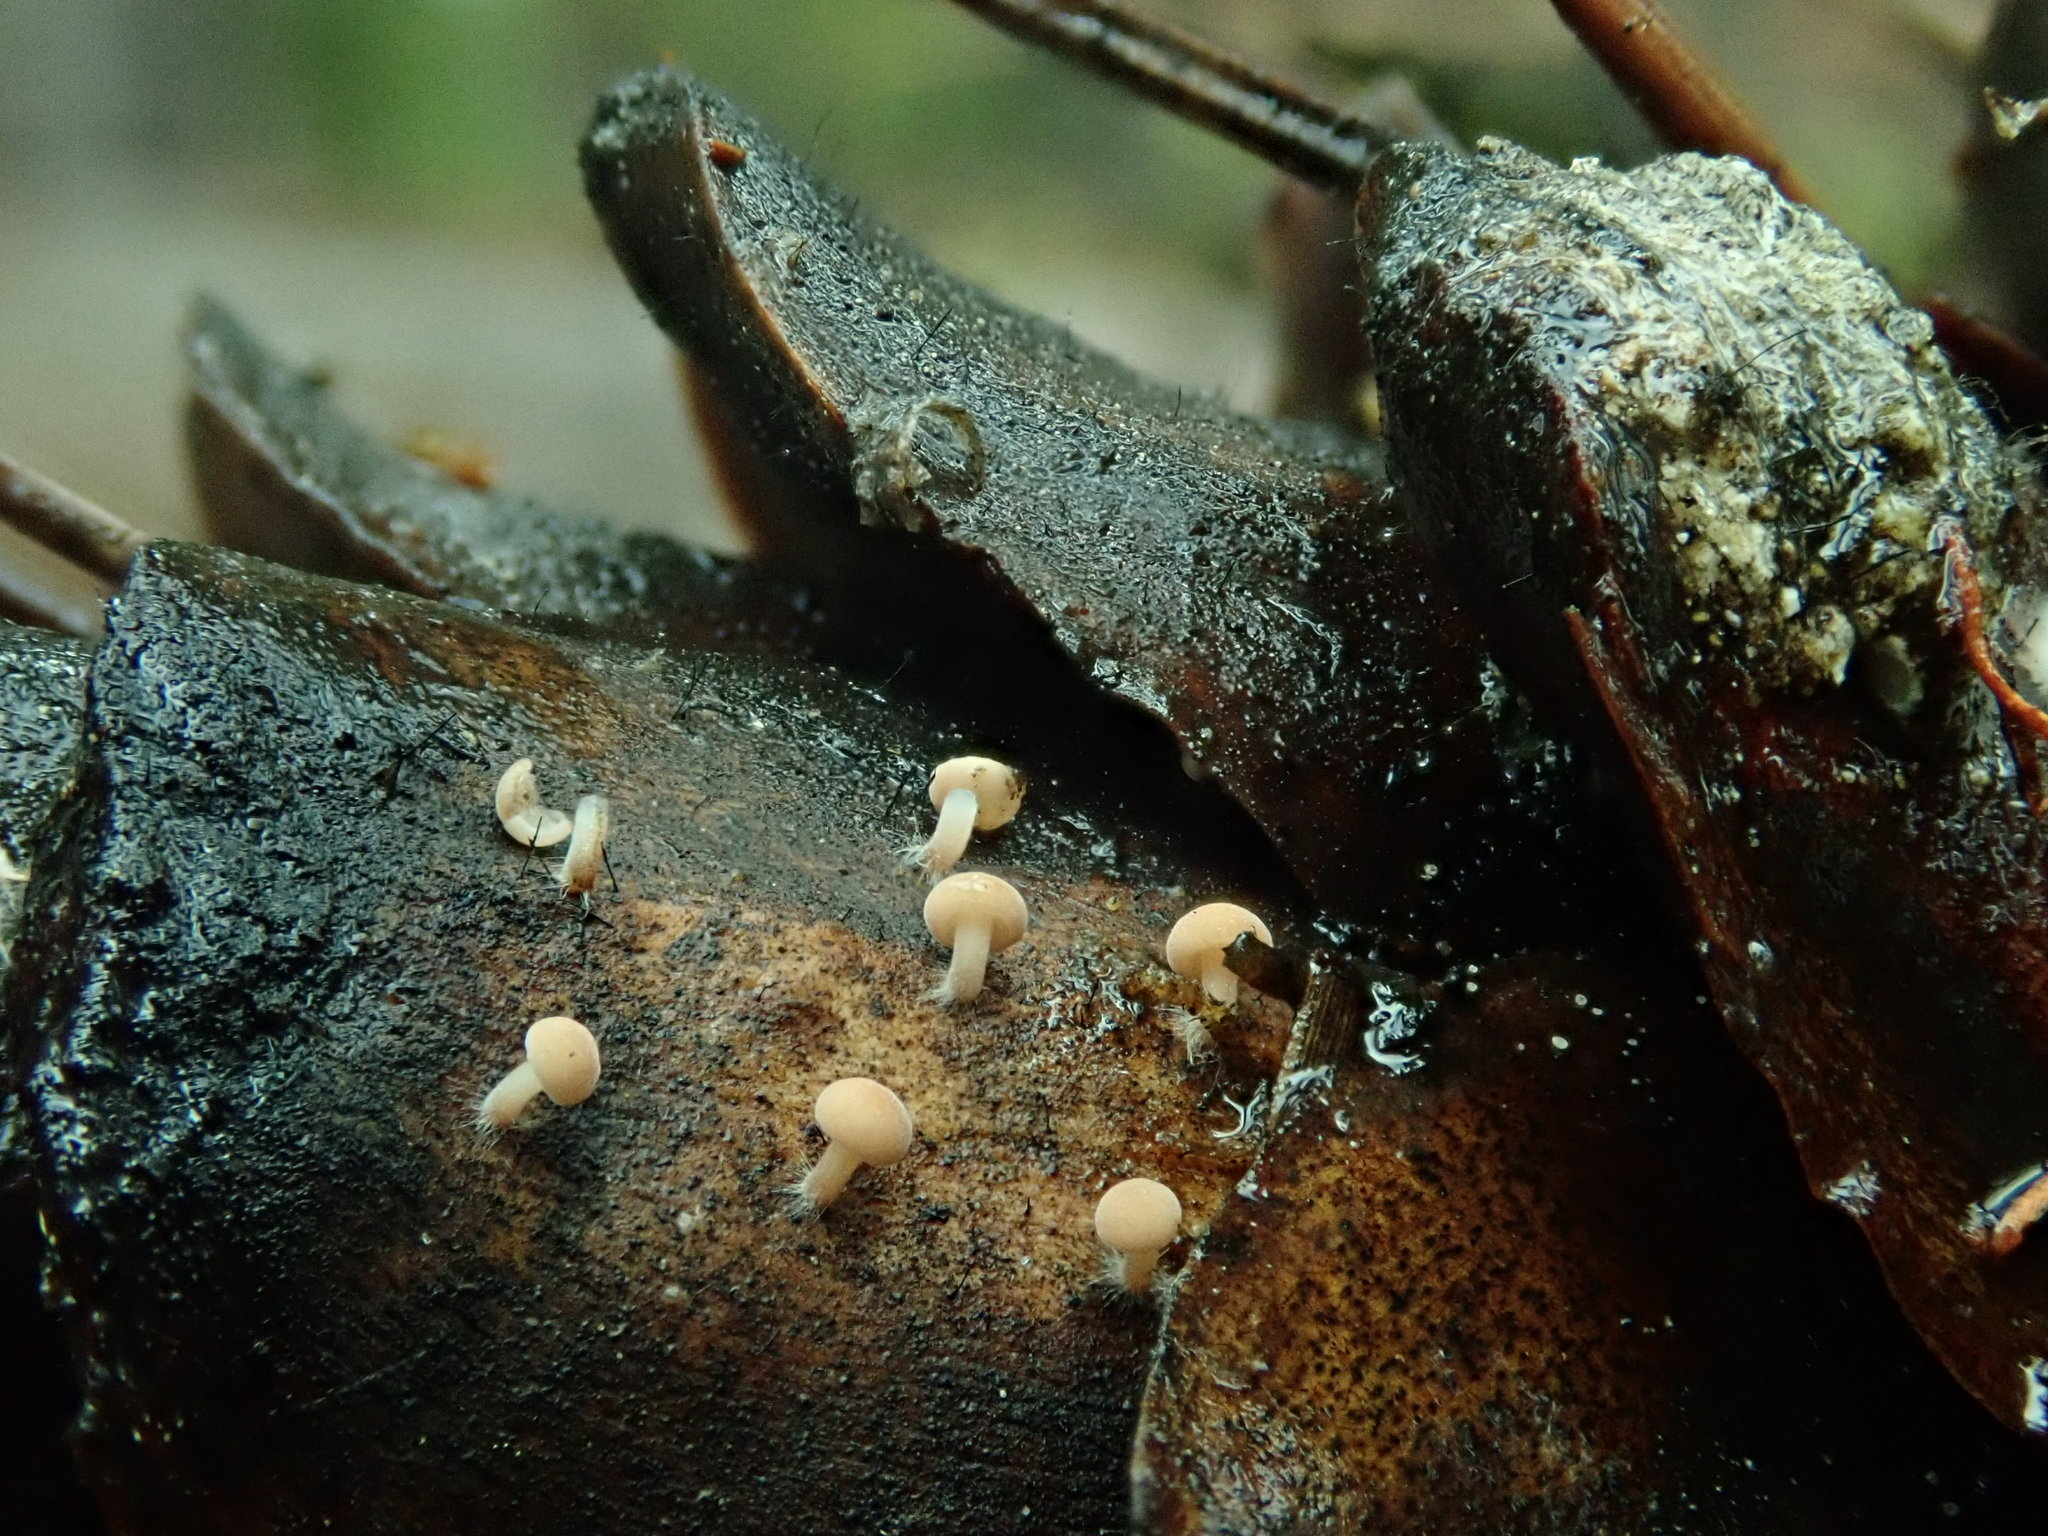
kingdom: Fungi
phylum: Basidiomycota
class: Agaricomycetes
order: Agaricales
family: Physalacriaceae
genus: Strobilurus
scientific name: Strobilurus diminutivus
